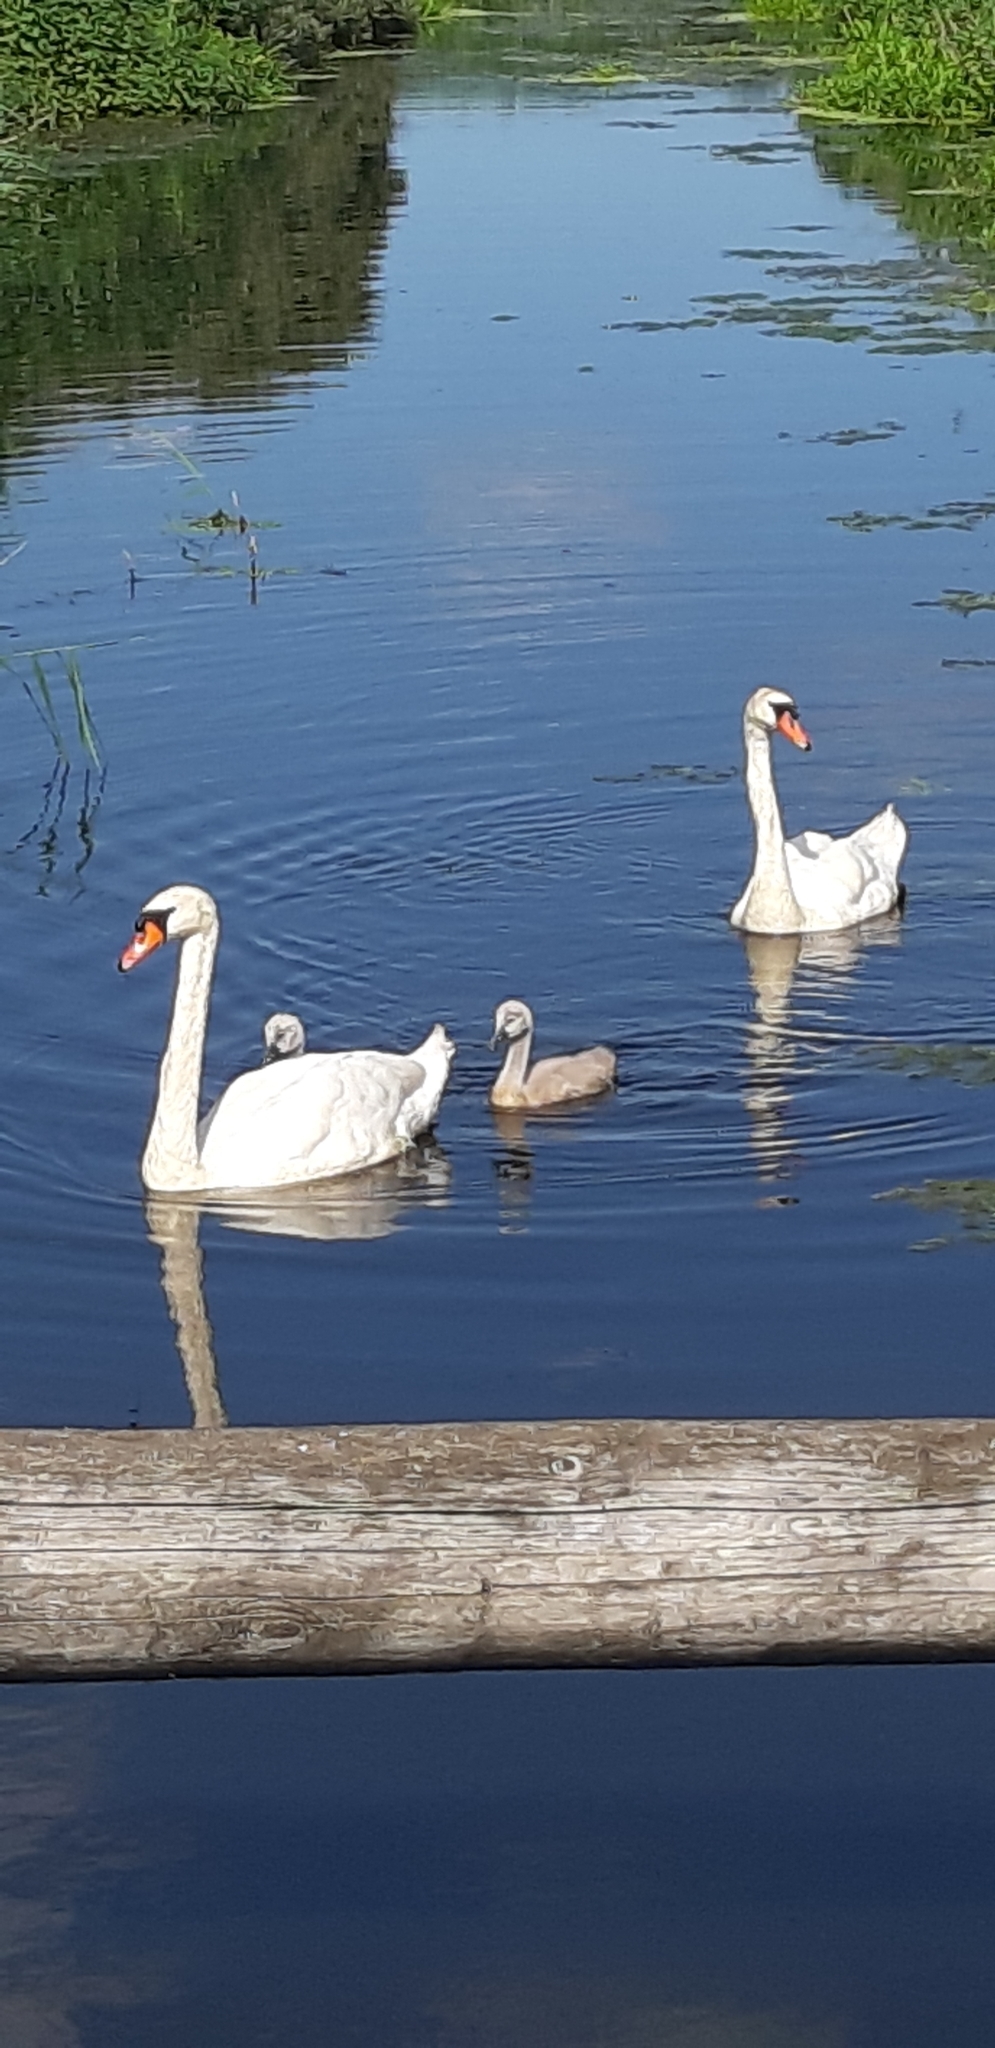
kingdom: Animalia
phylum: Chordata
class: Aves
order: Anseriformes
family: Anatidae
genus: Cygnus
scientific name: Cygnus olor
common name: Mute swan
